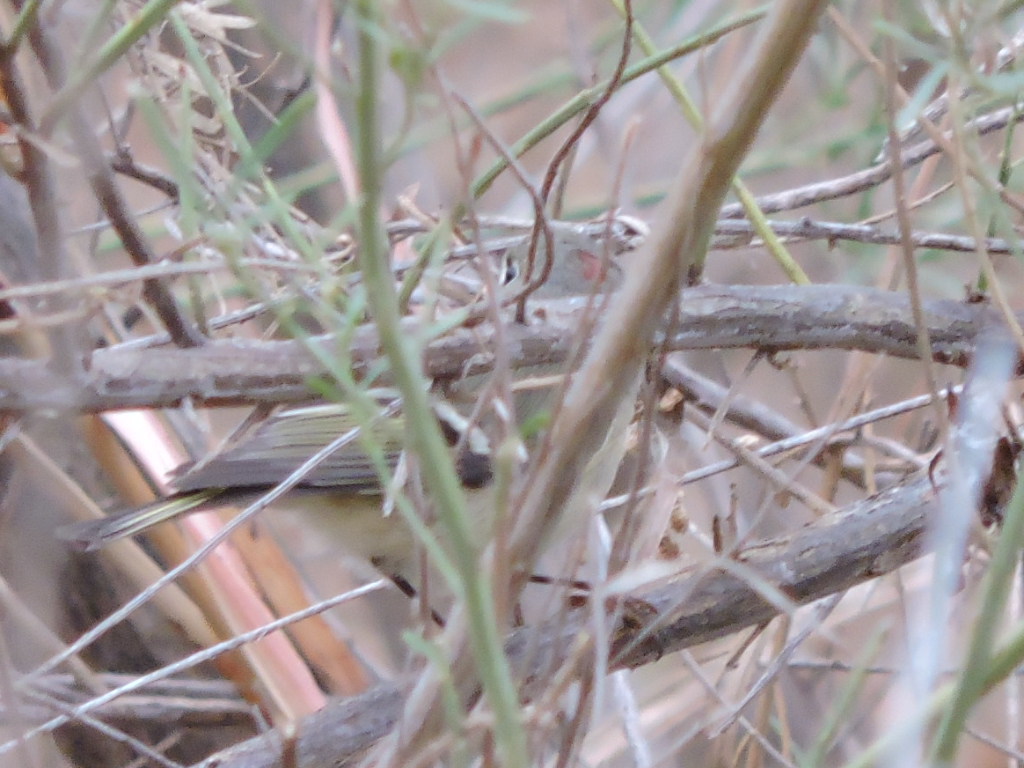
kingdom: Animalia
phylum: Chordata
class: Aves
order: Passeriformes
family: Regulidae
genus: Regulus
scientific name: Regulus calendula
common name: Ruby-crowned kinglet
